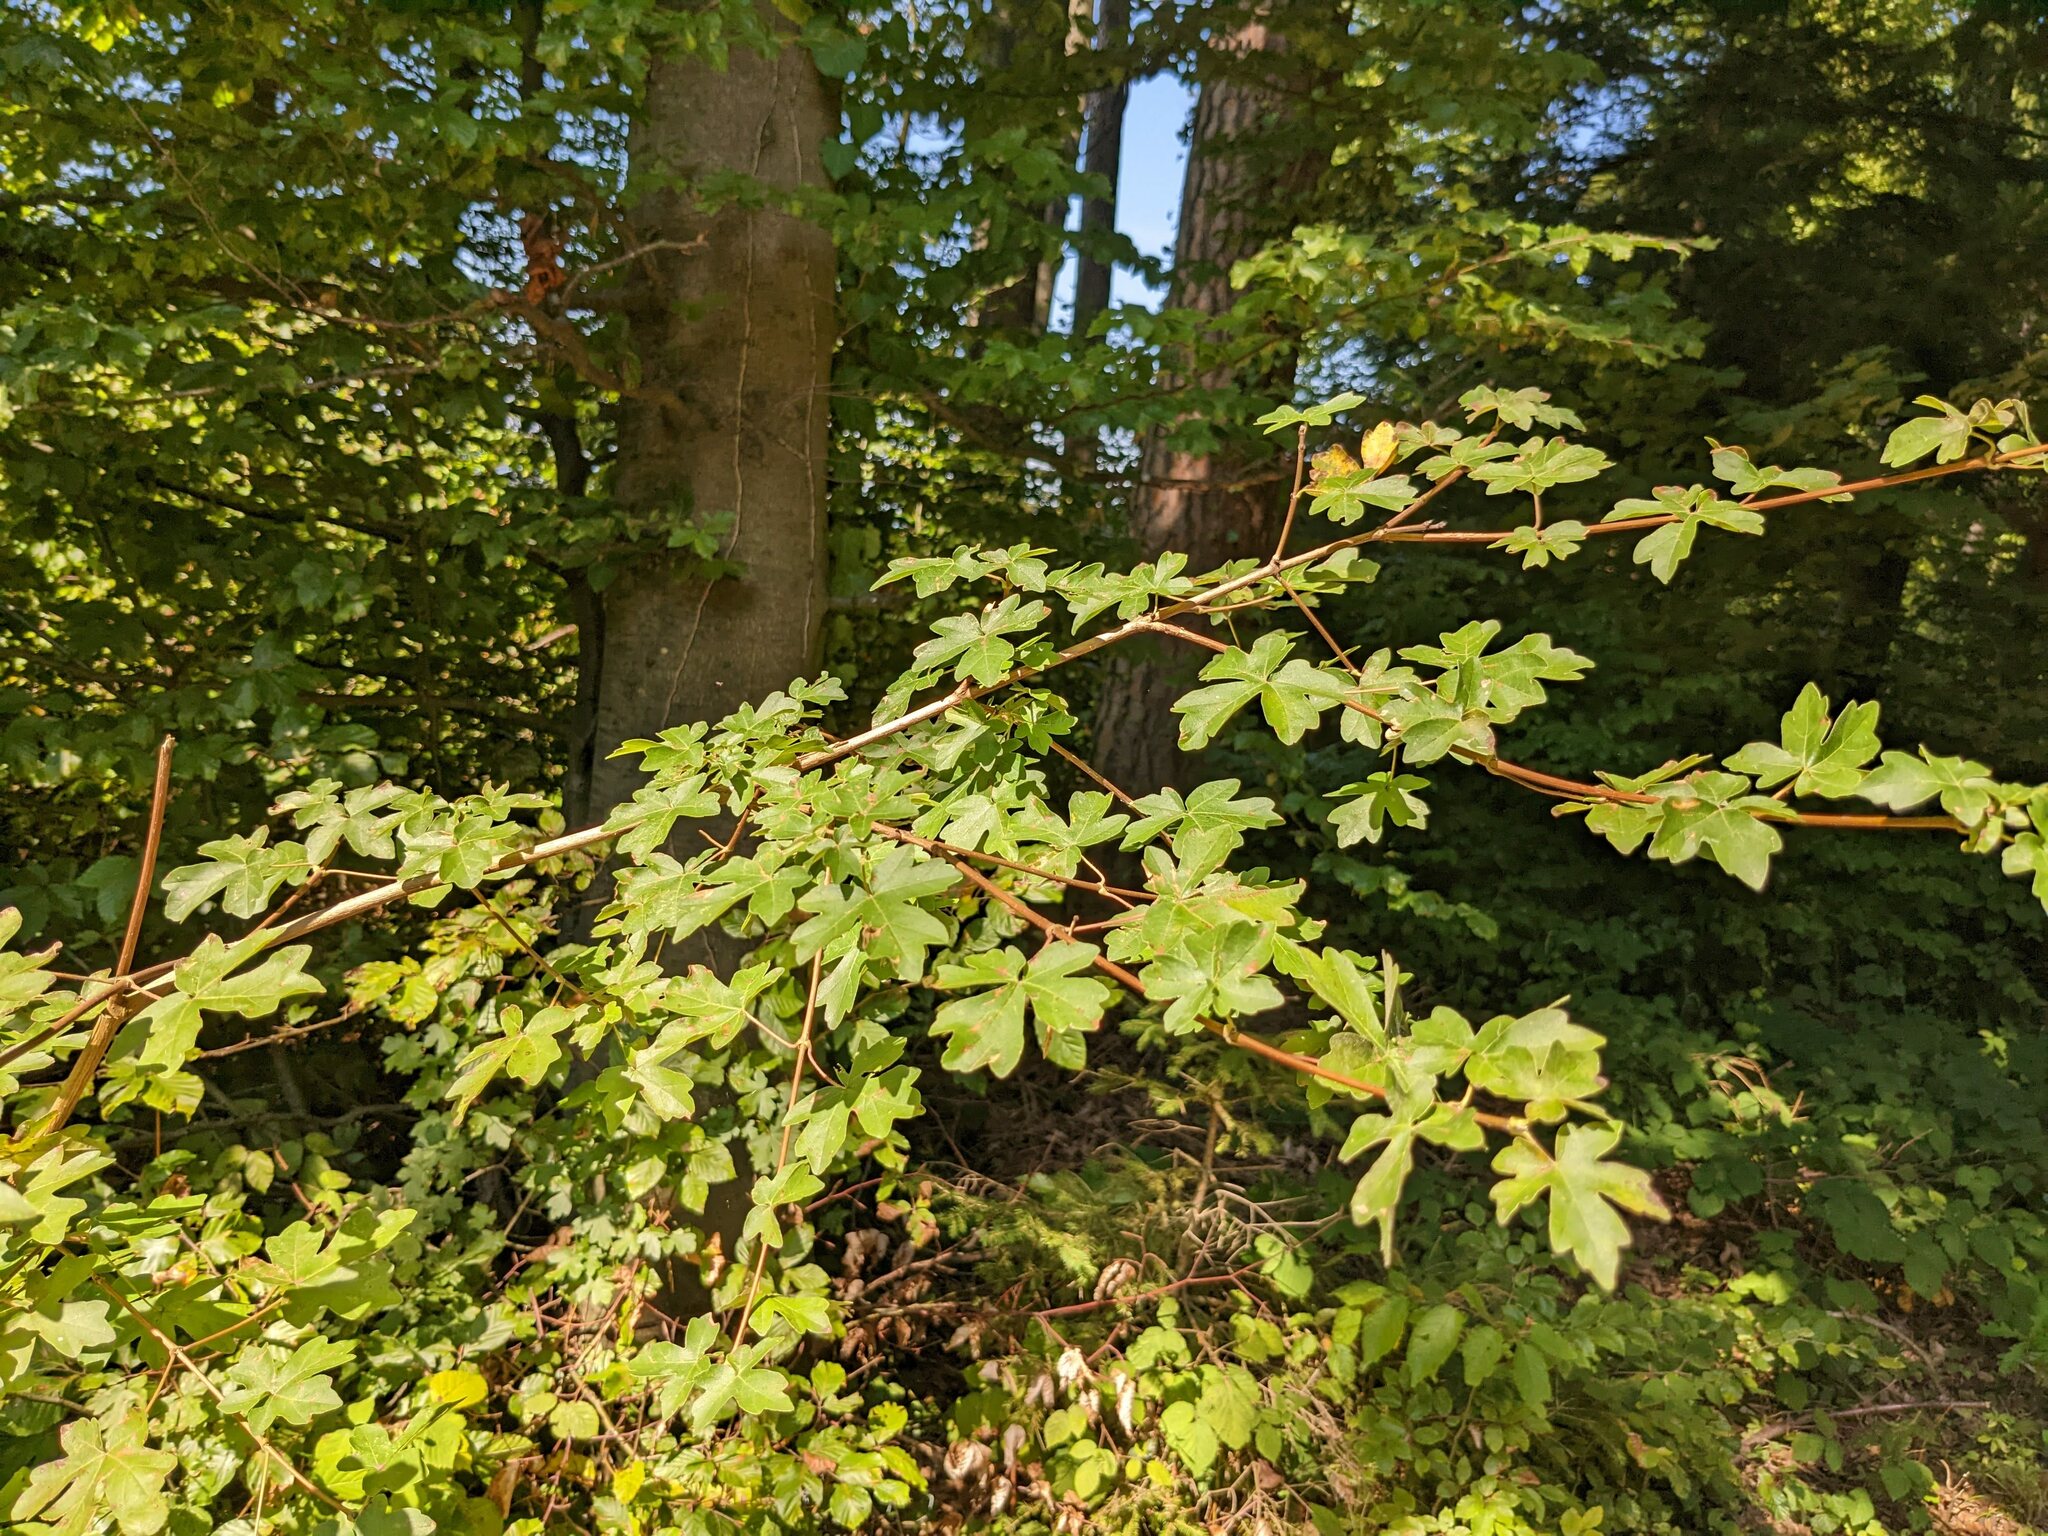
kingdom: Plantae
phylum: Tracheophyta
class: Magnoliopsida
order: Sapindales
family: Sapindaceae
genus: Acer
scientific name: Acer campestre
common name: Field maple
